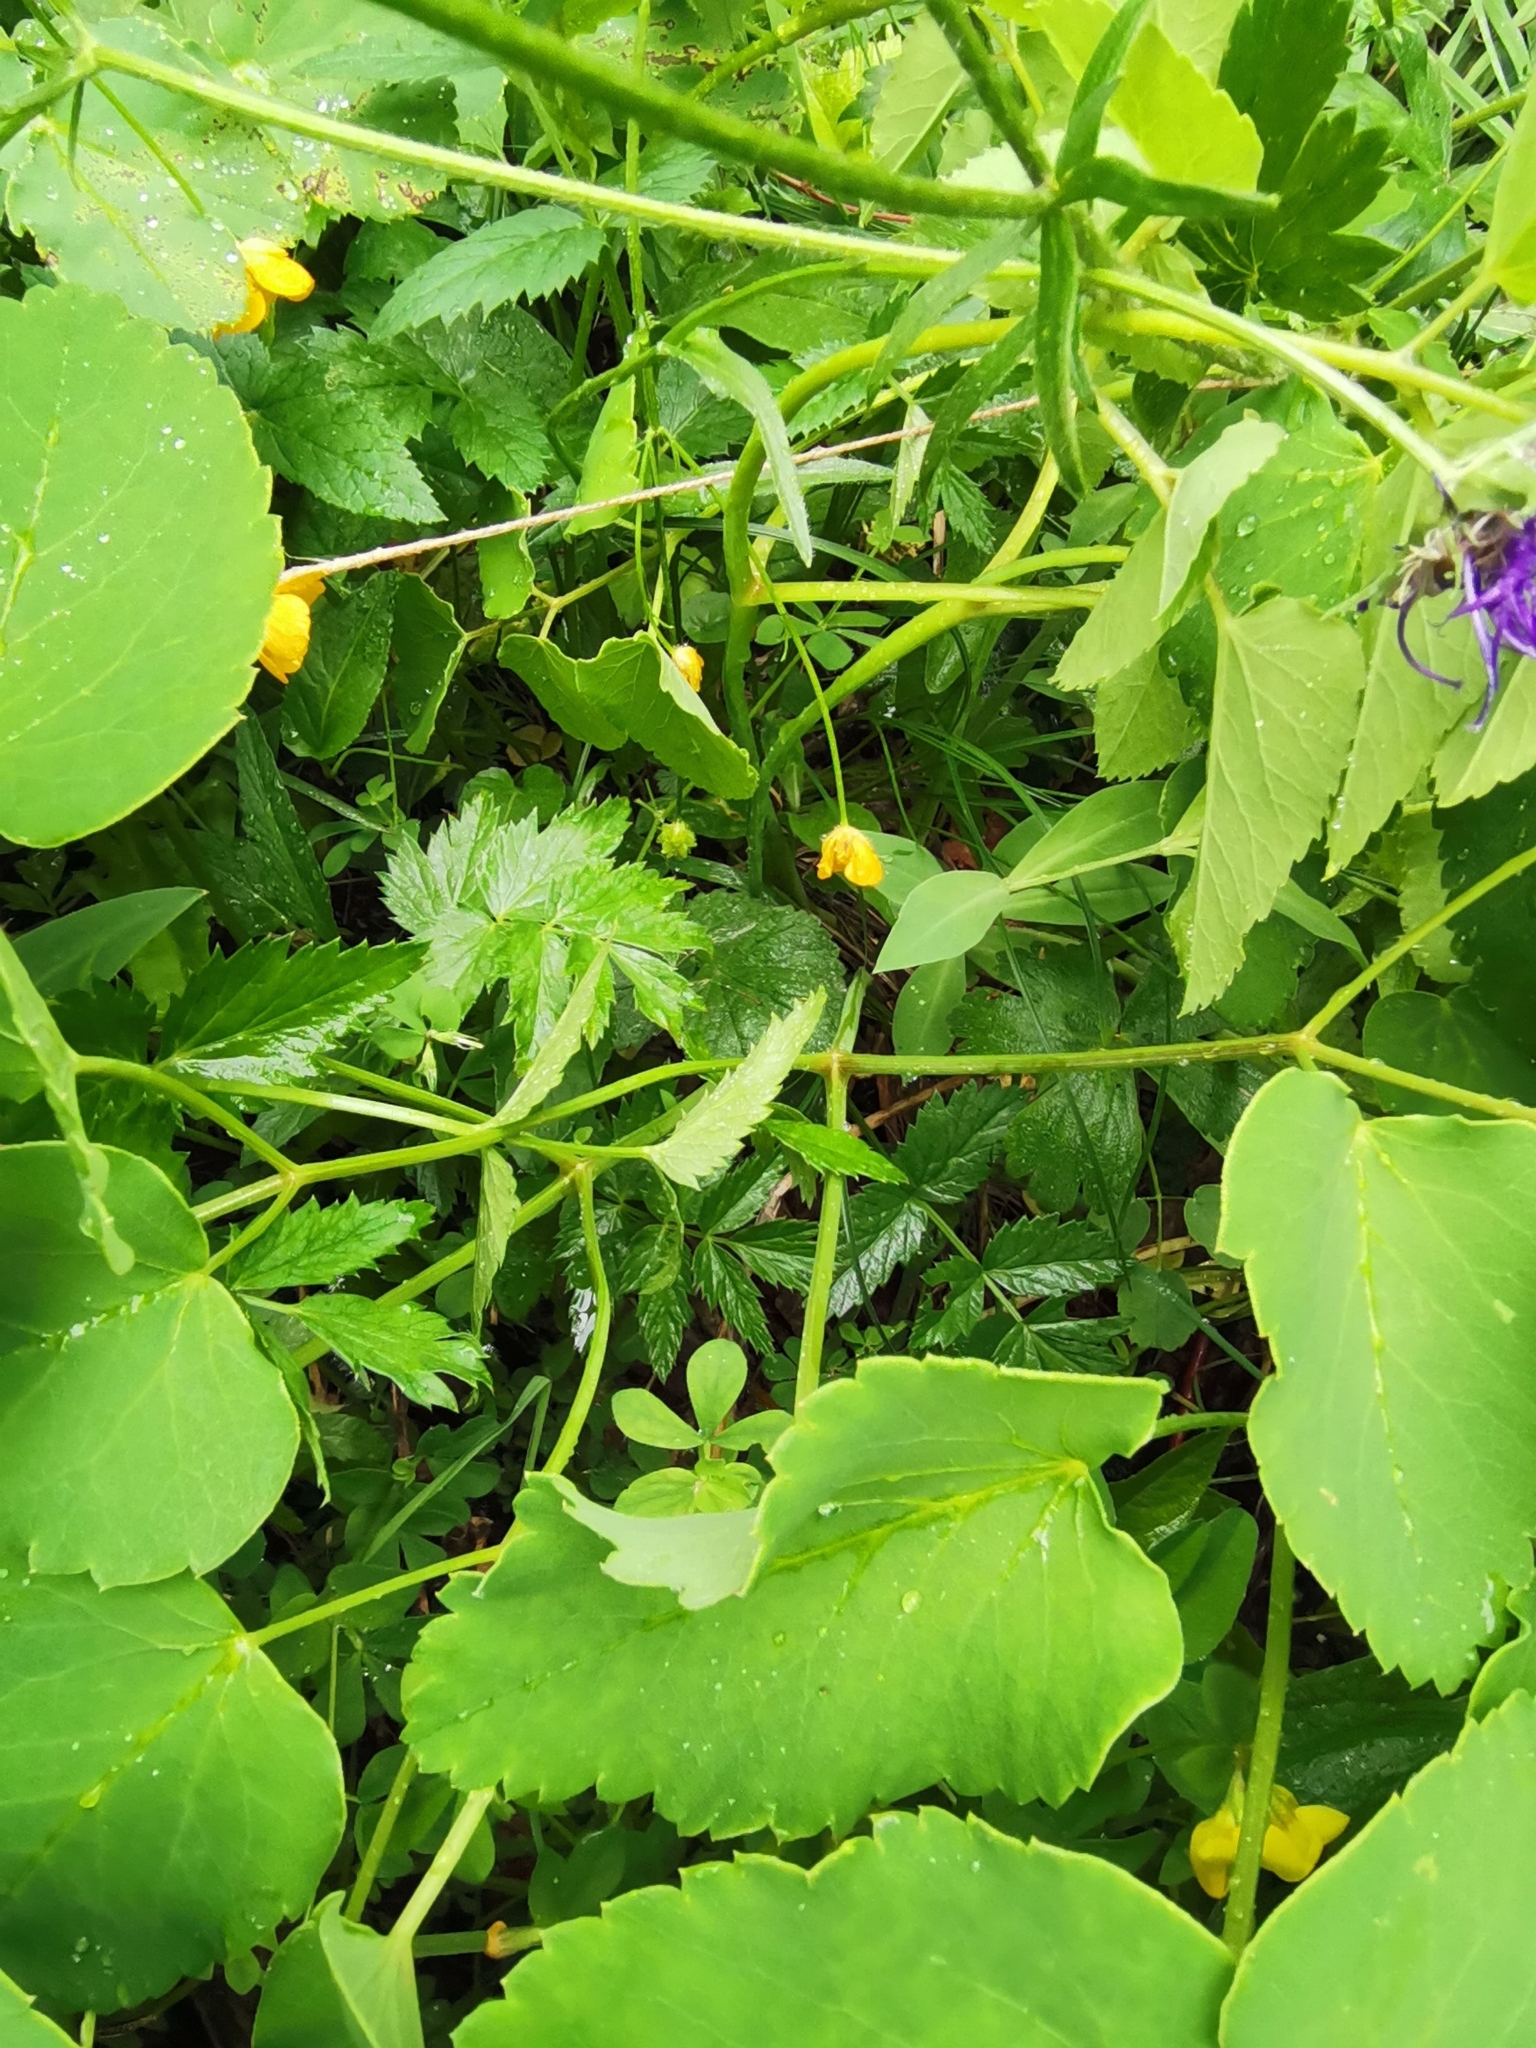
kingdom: Plantae
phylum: Tracheophyta
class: Magnoliopsida
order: Apiales
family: Apiaceae
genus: Laserpitium
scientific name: Laserpitium latifolium
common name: Broadleaf sermountain
